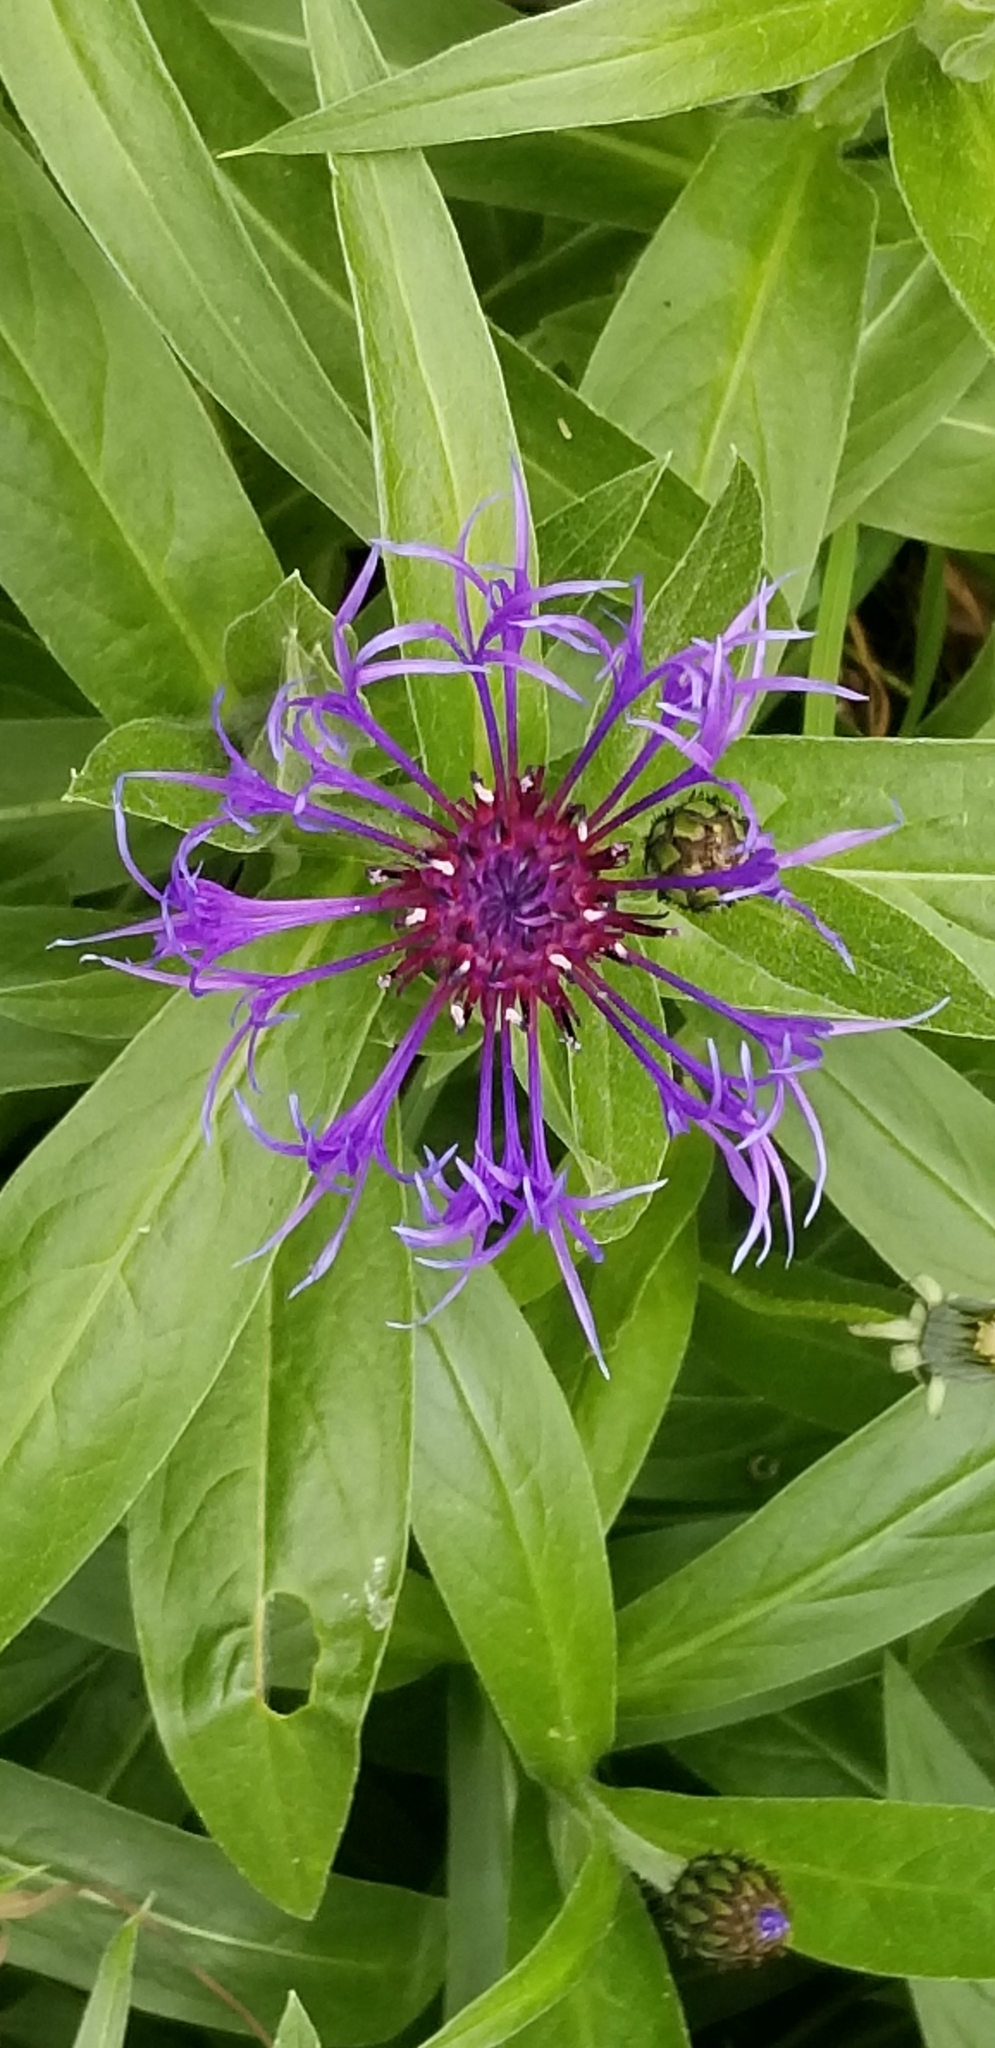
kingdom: Plantae
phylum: Tracheophyta
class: Magnoliopsida
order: Asterales
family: Asteraceae
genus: Centaurea
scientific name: Centaurea montana
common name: Perennial cornflower
